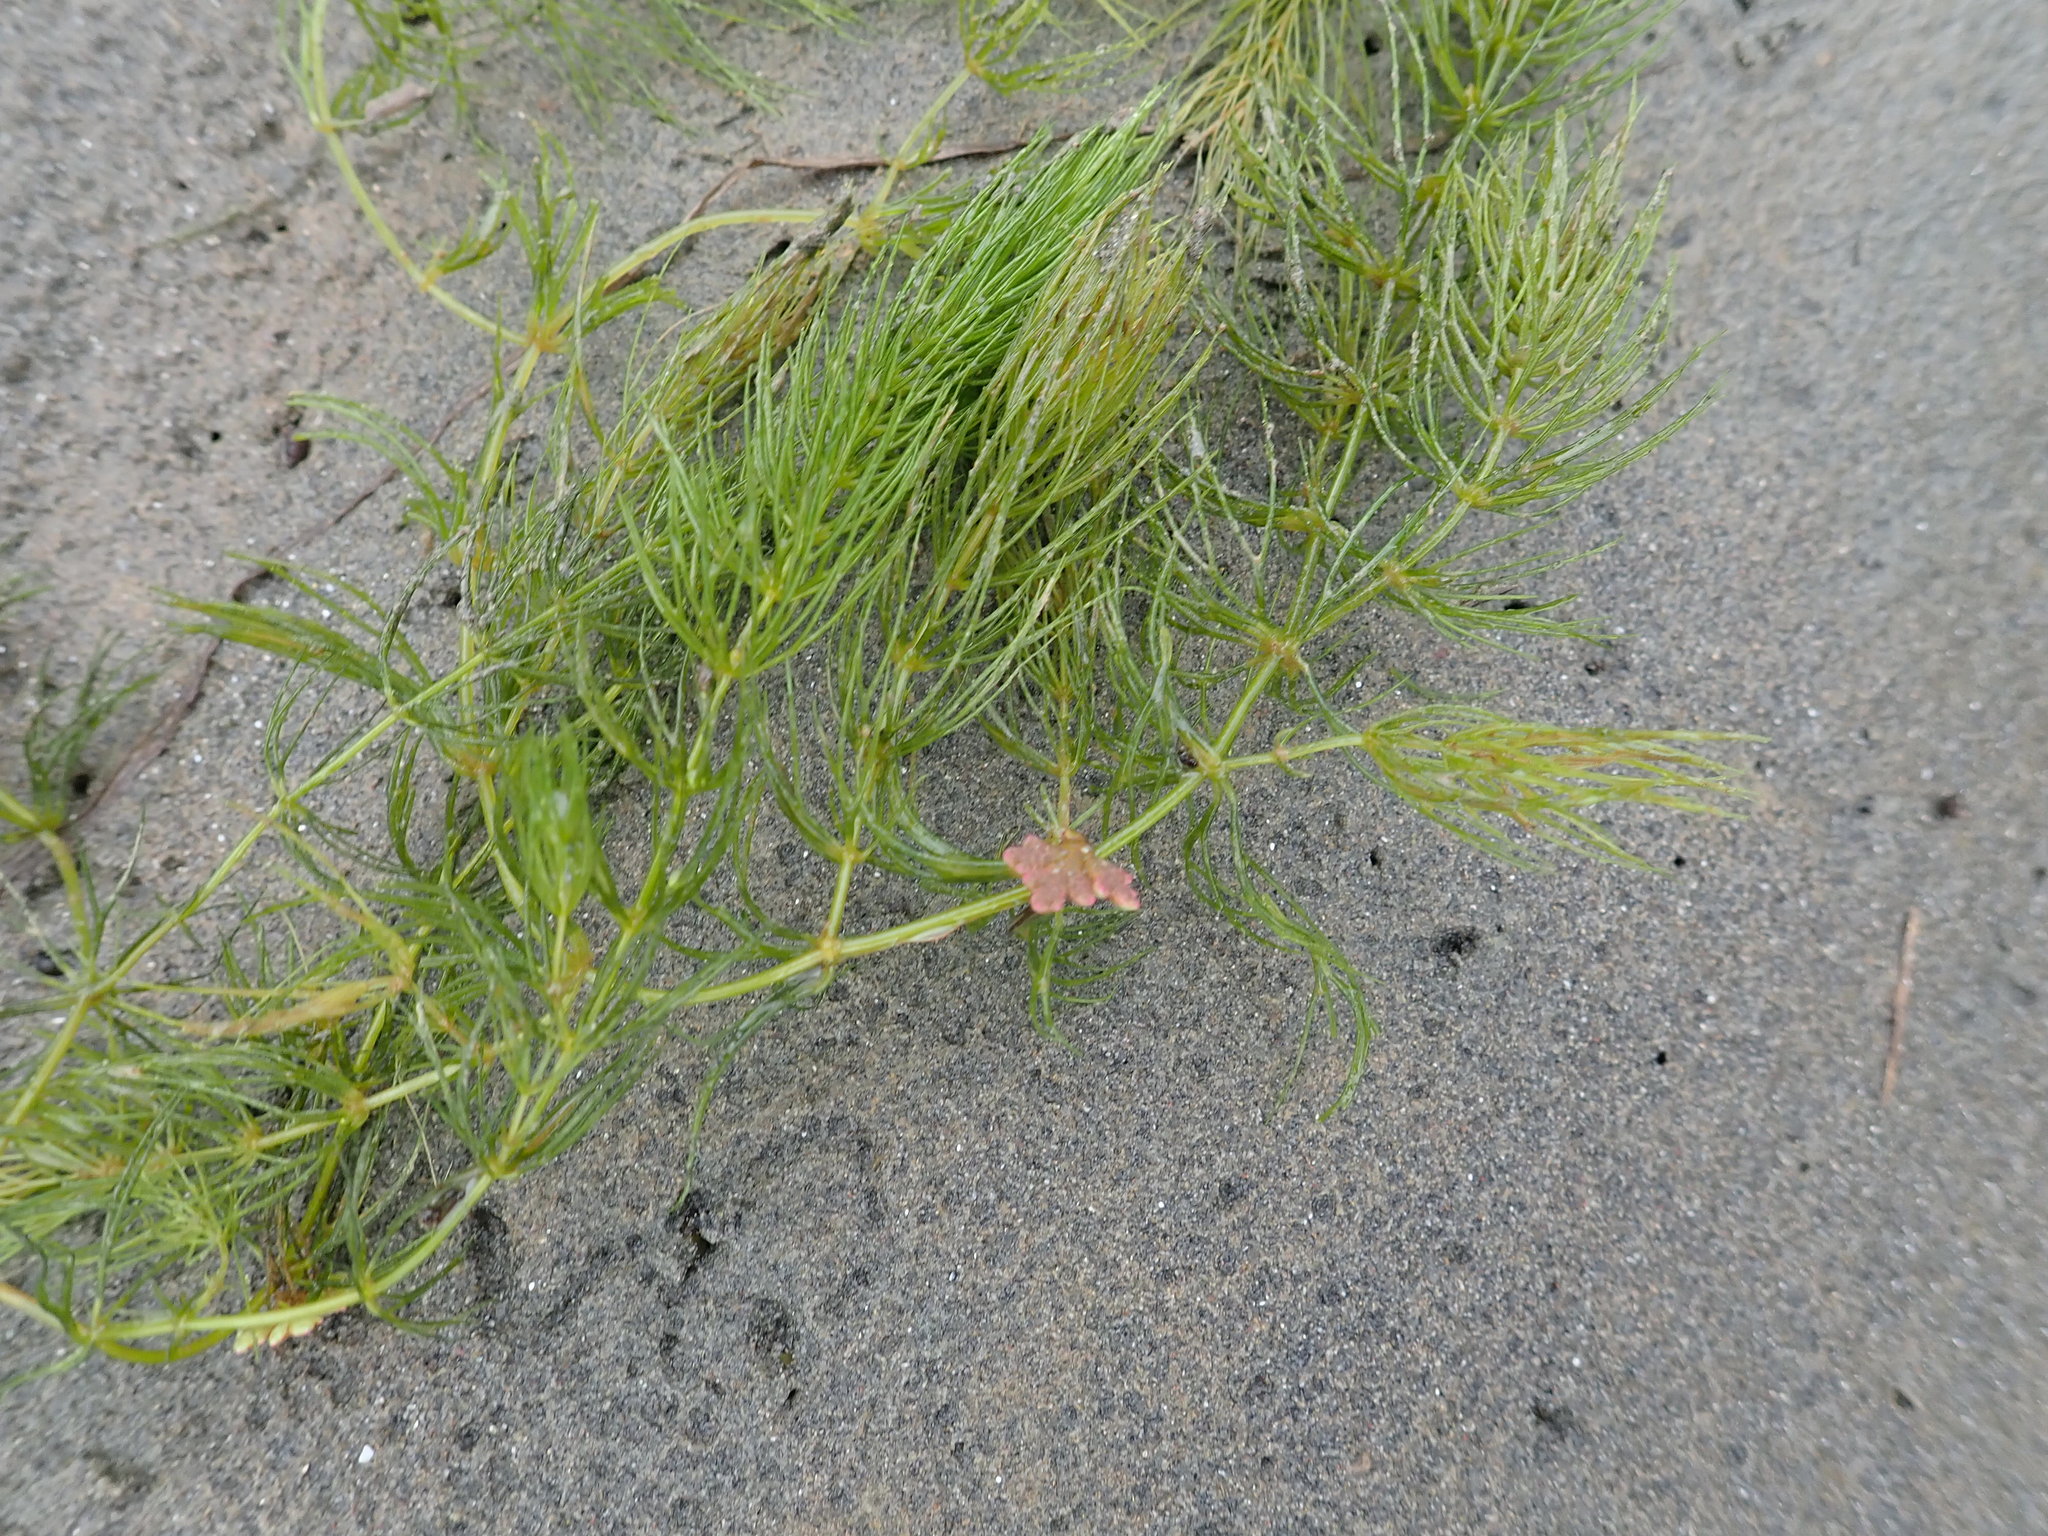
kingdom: Plantae
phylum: Tracheophyta
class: Magnoliopsida
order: Ceratophyllales
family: Ceratophyllaceae
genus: Ceratophyllum
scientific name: Ceratophyllum demersum
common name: Rigid hornwort
